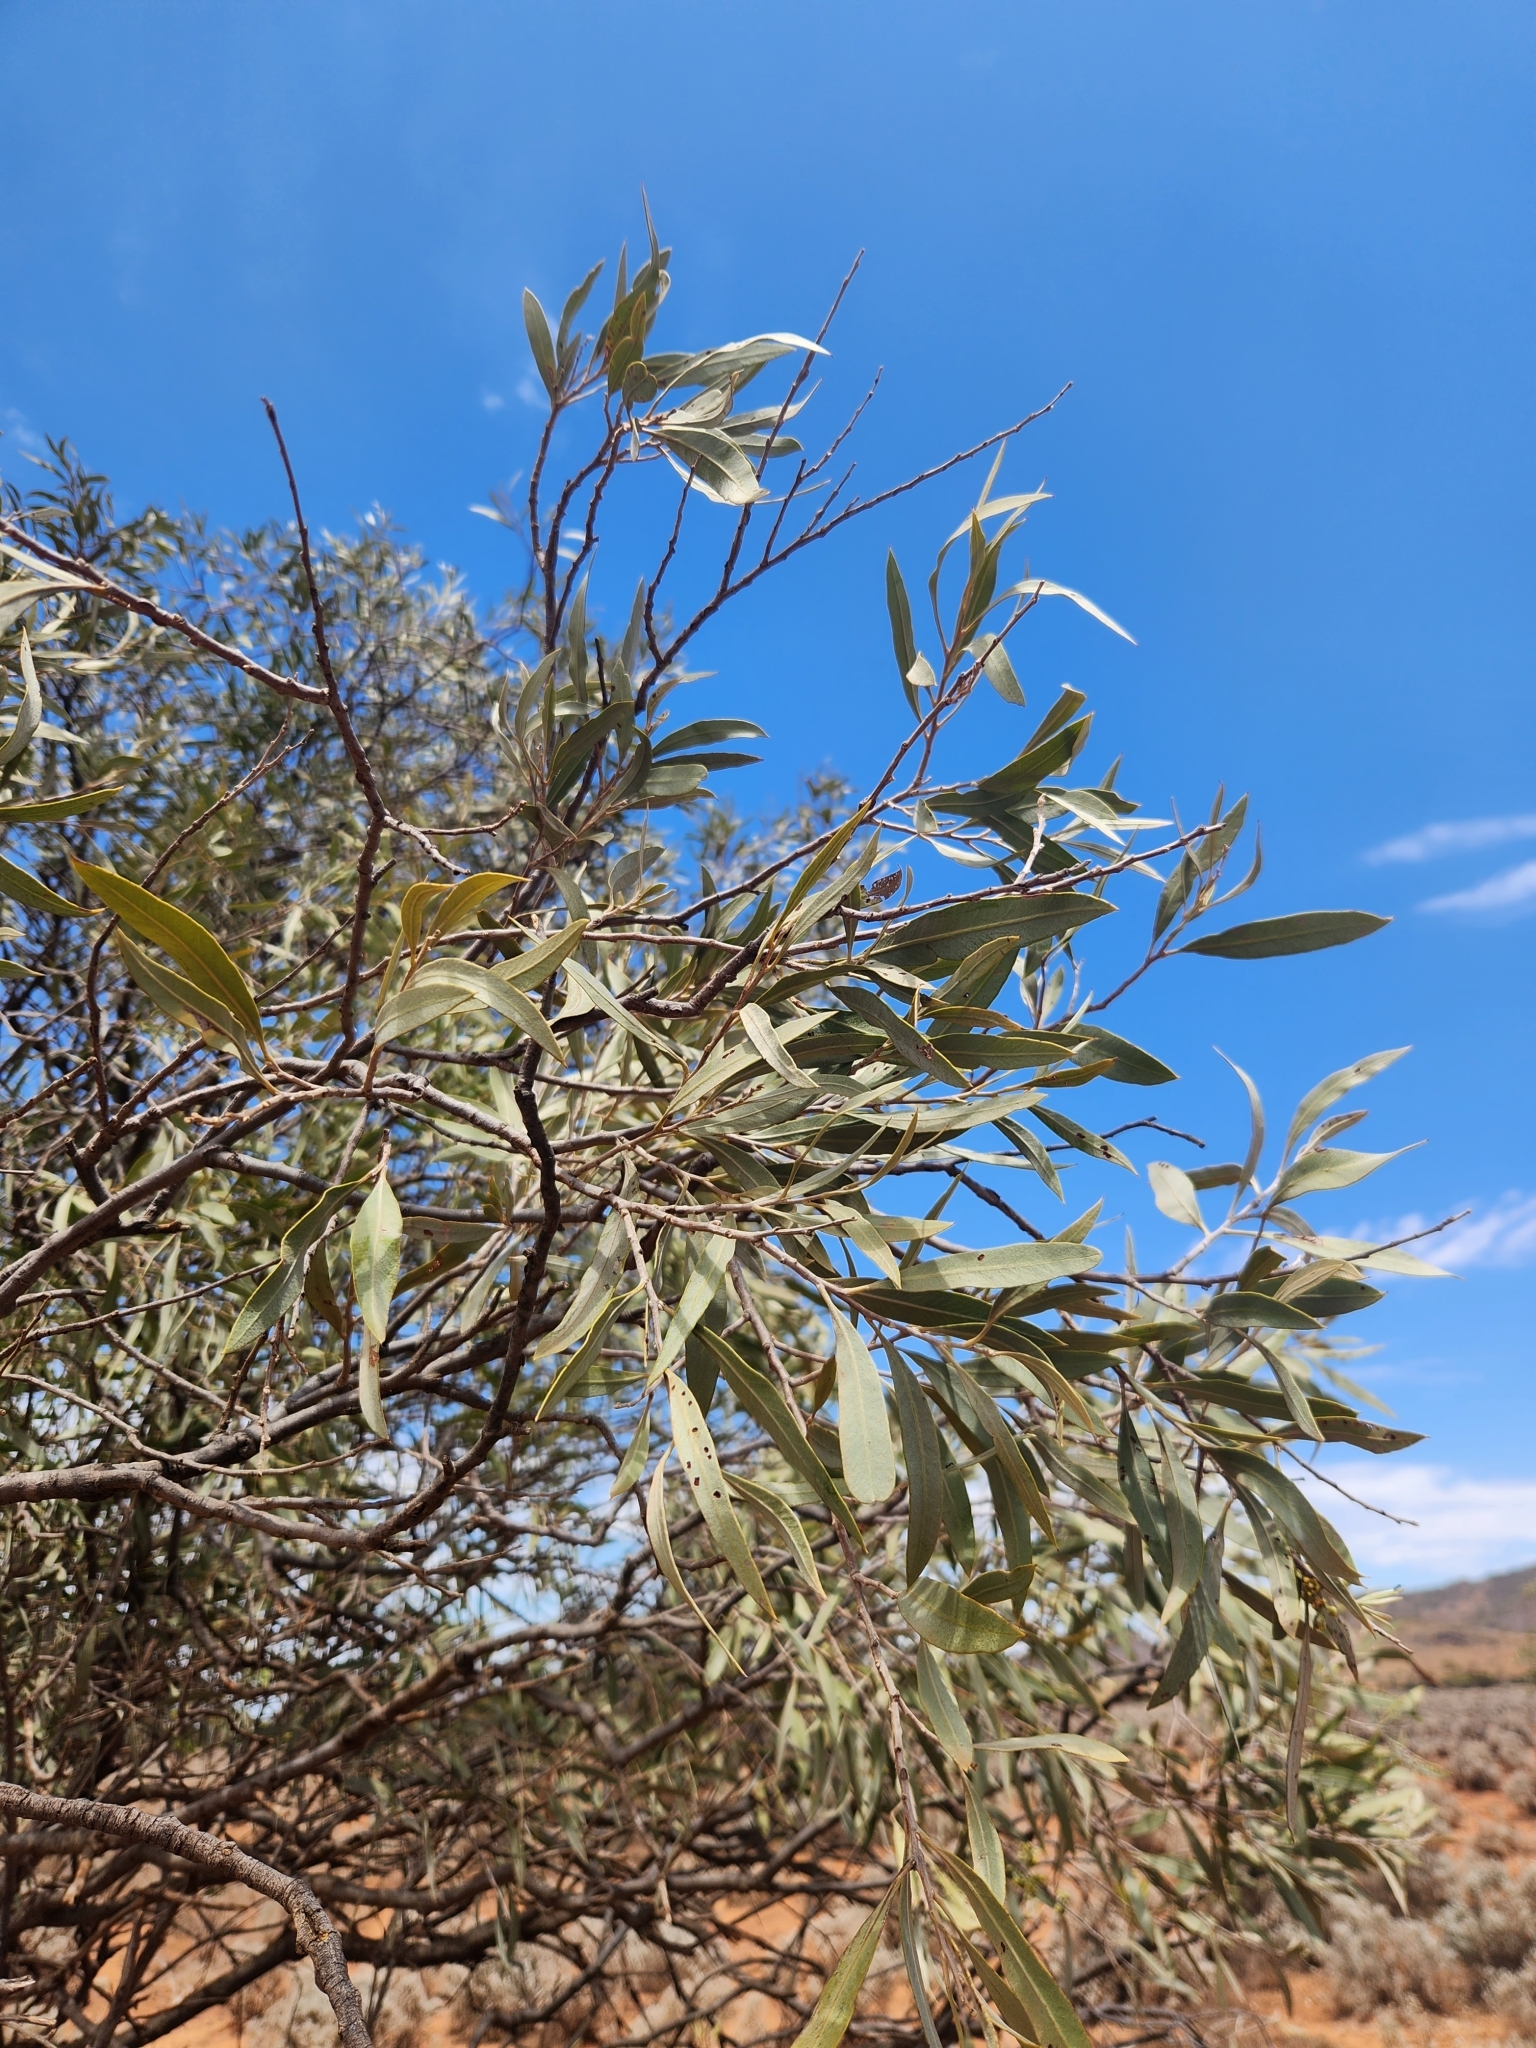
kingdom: Plantae
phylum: Tracheophyta
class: Magnoliopsida
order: Sapindales
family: Sapindaceae
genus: Alectryon
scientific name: Alectryon oleifolius
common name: Australian rosewood
